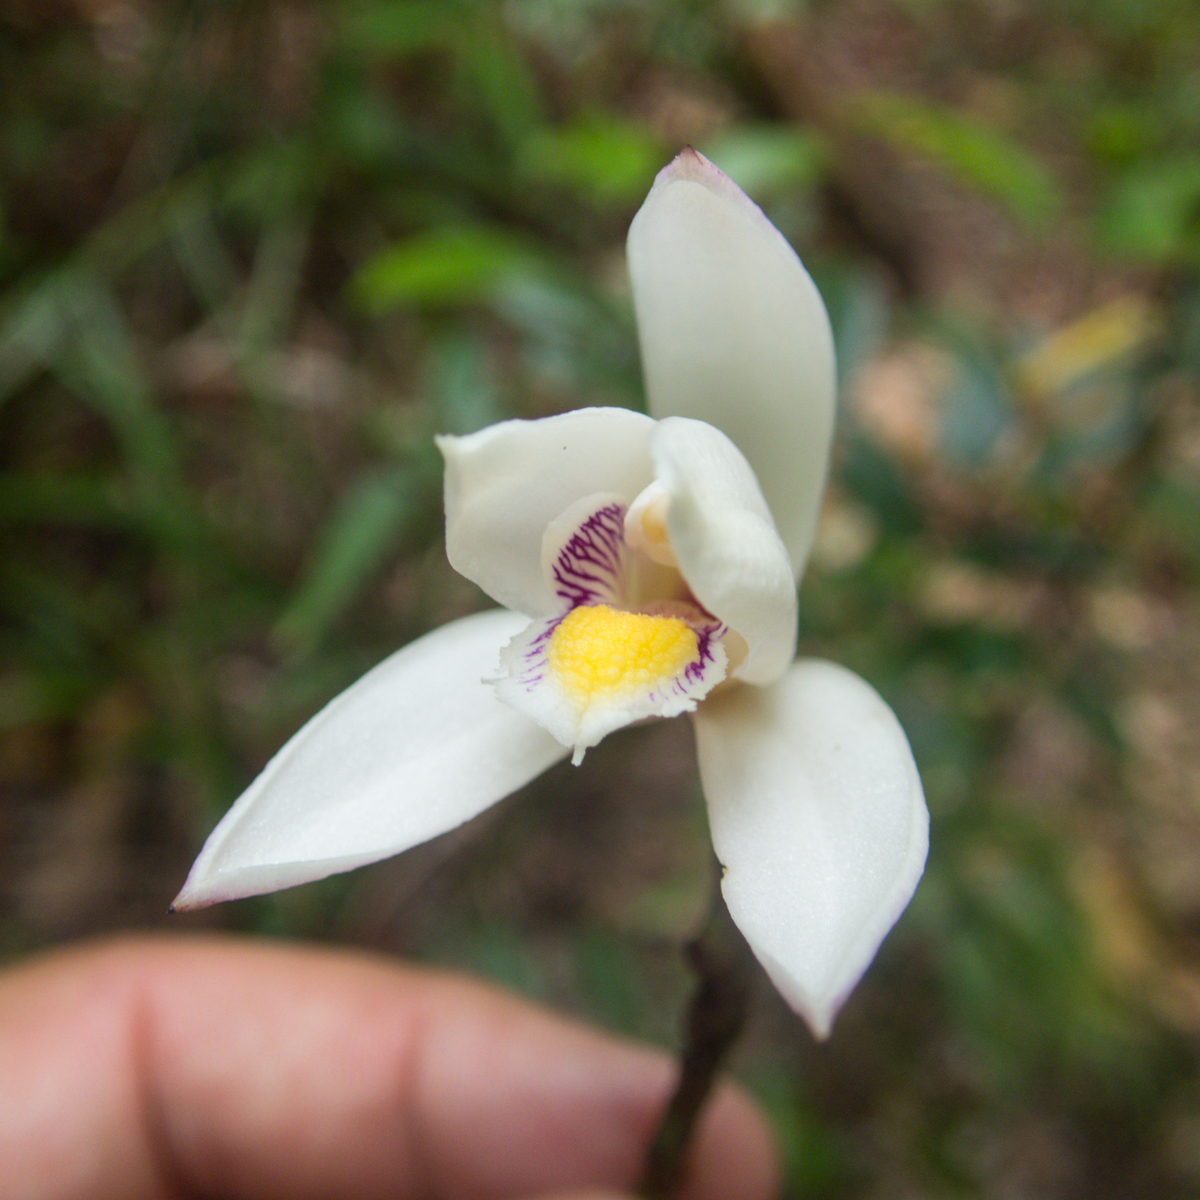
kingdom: Plantae
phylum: Tracheophyta
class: Liliopsida
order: Asparagales
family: Orchidaceae
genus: Bromheadia
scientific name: Bromheadia finlaysoniana
